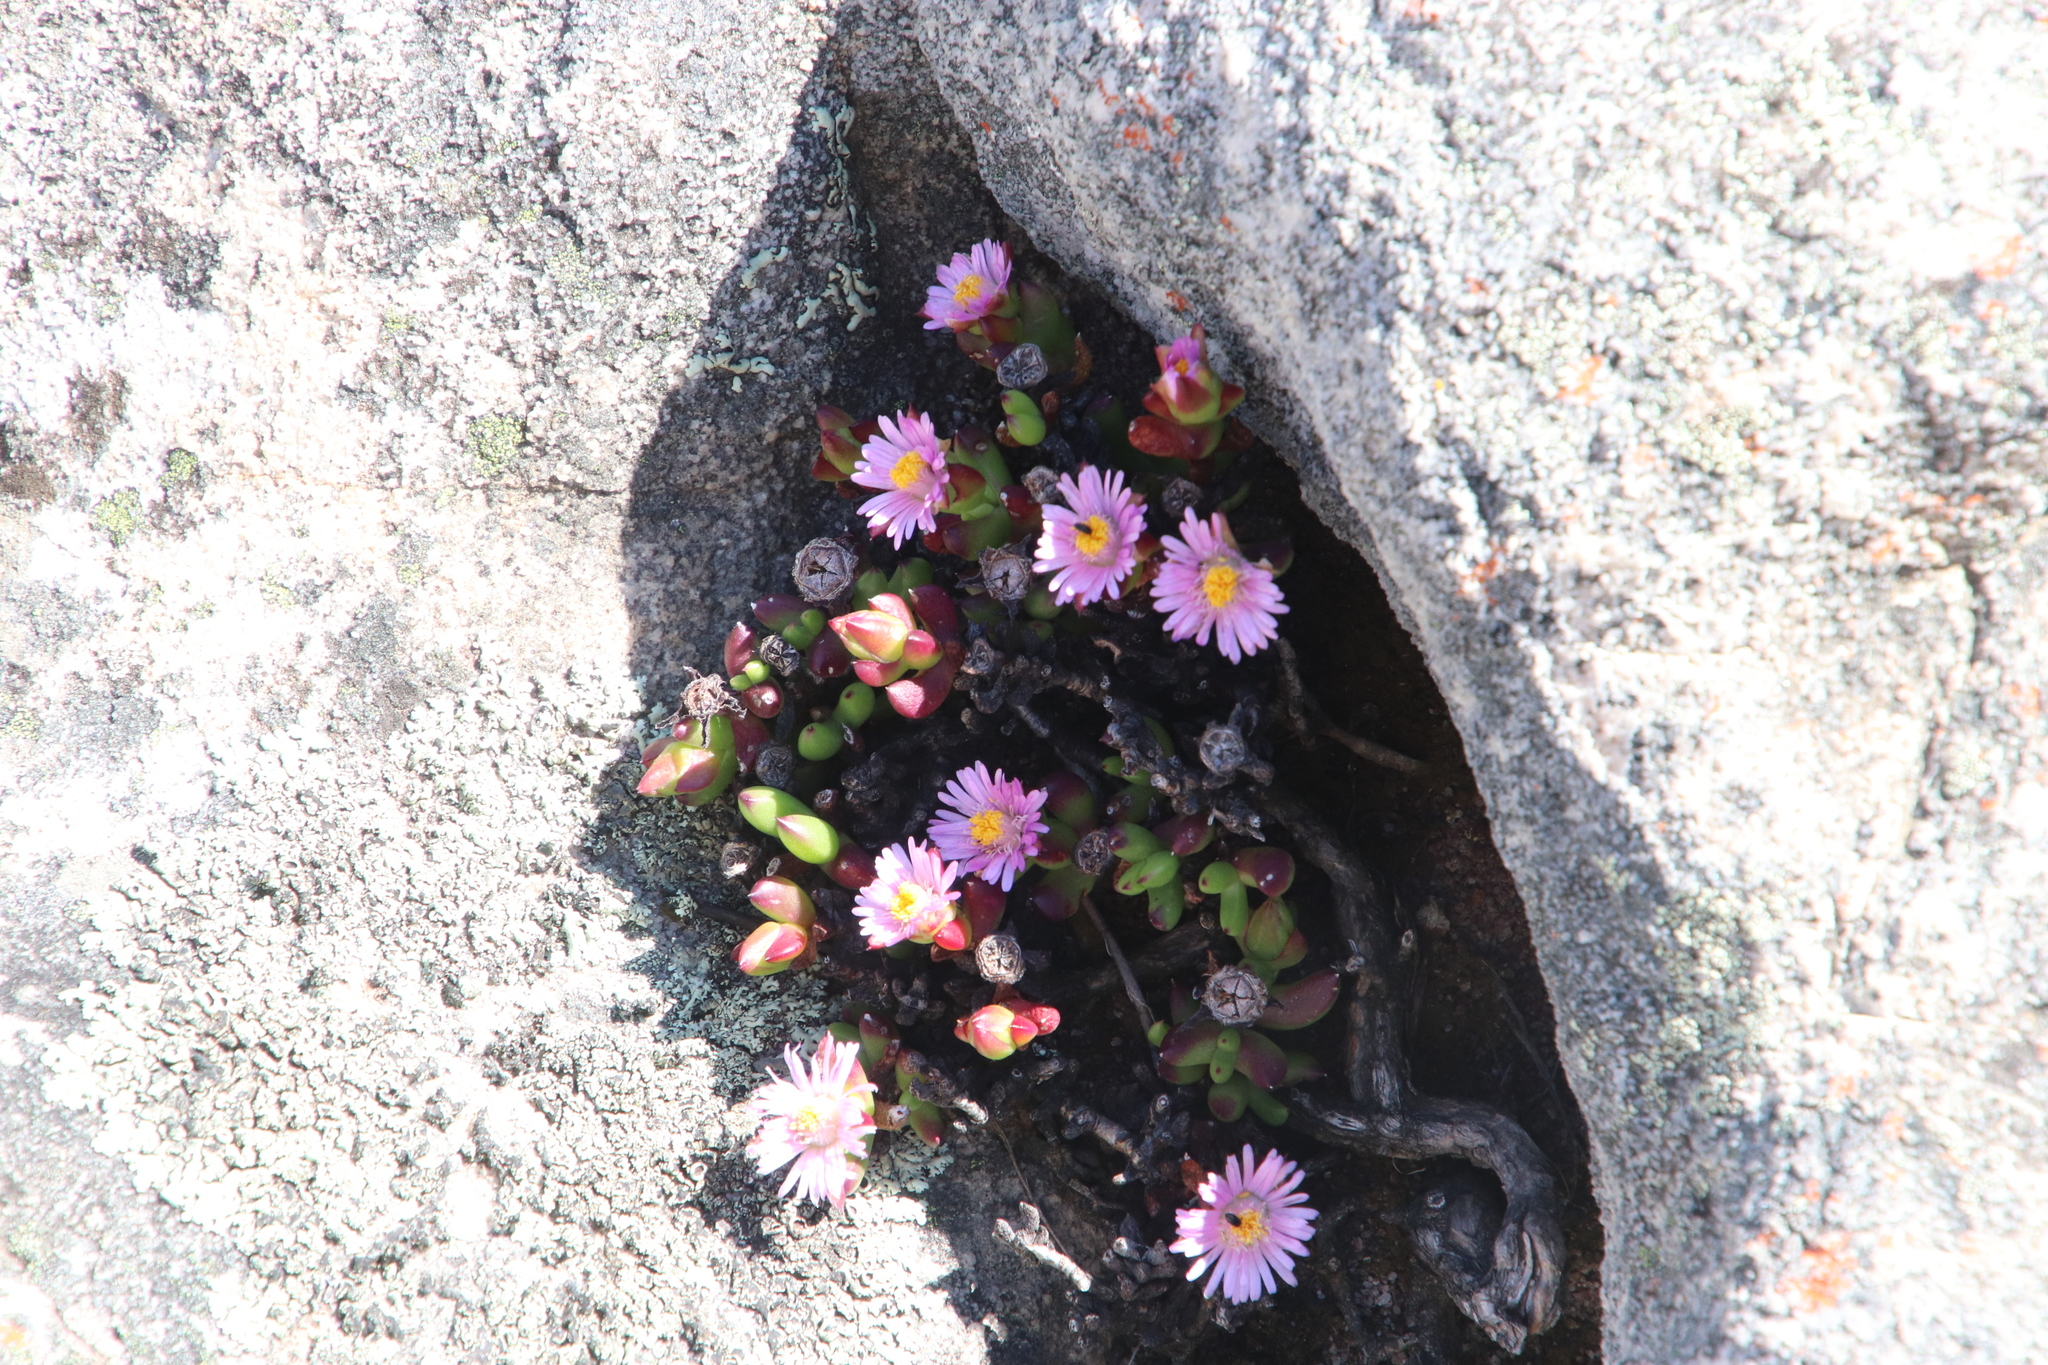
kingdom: Plantae
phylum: Tracheophyta
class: Magnoliopsida
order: Caryophyllales
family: Aizoaceae
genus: Esterhuysenia
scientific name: Esterhuysenia drepanophylla
